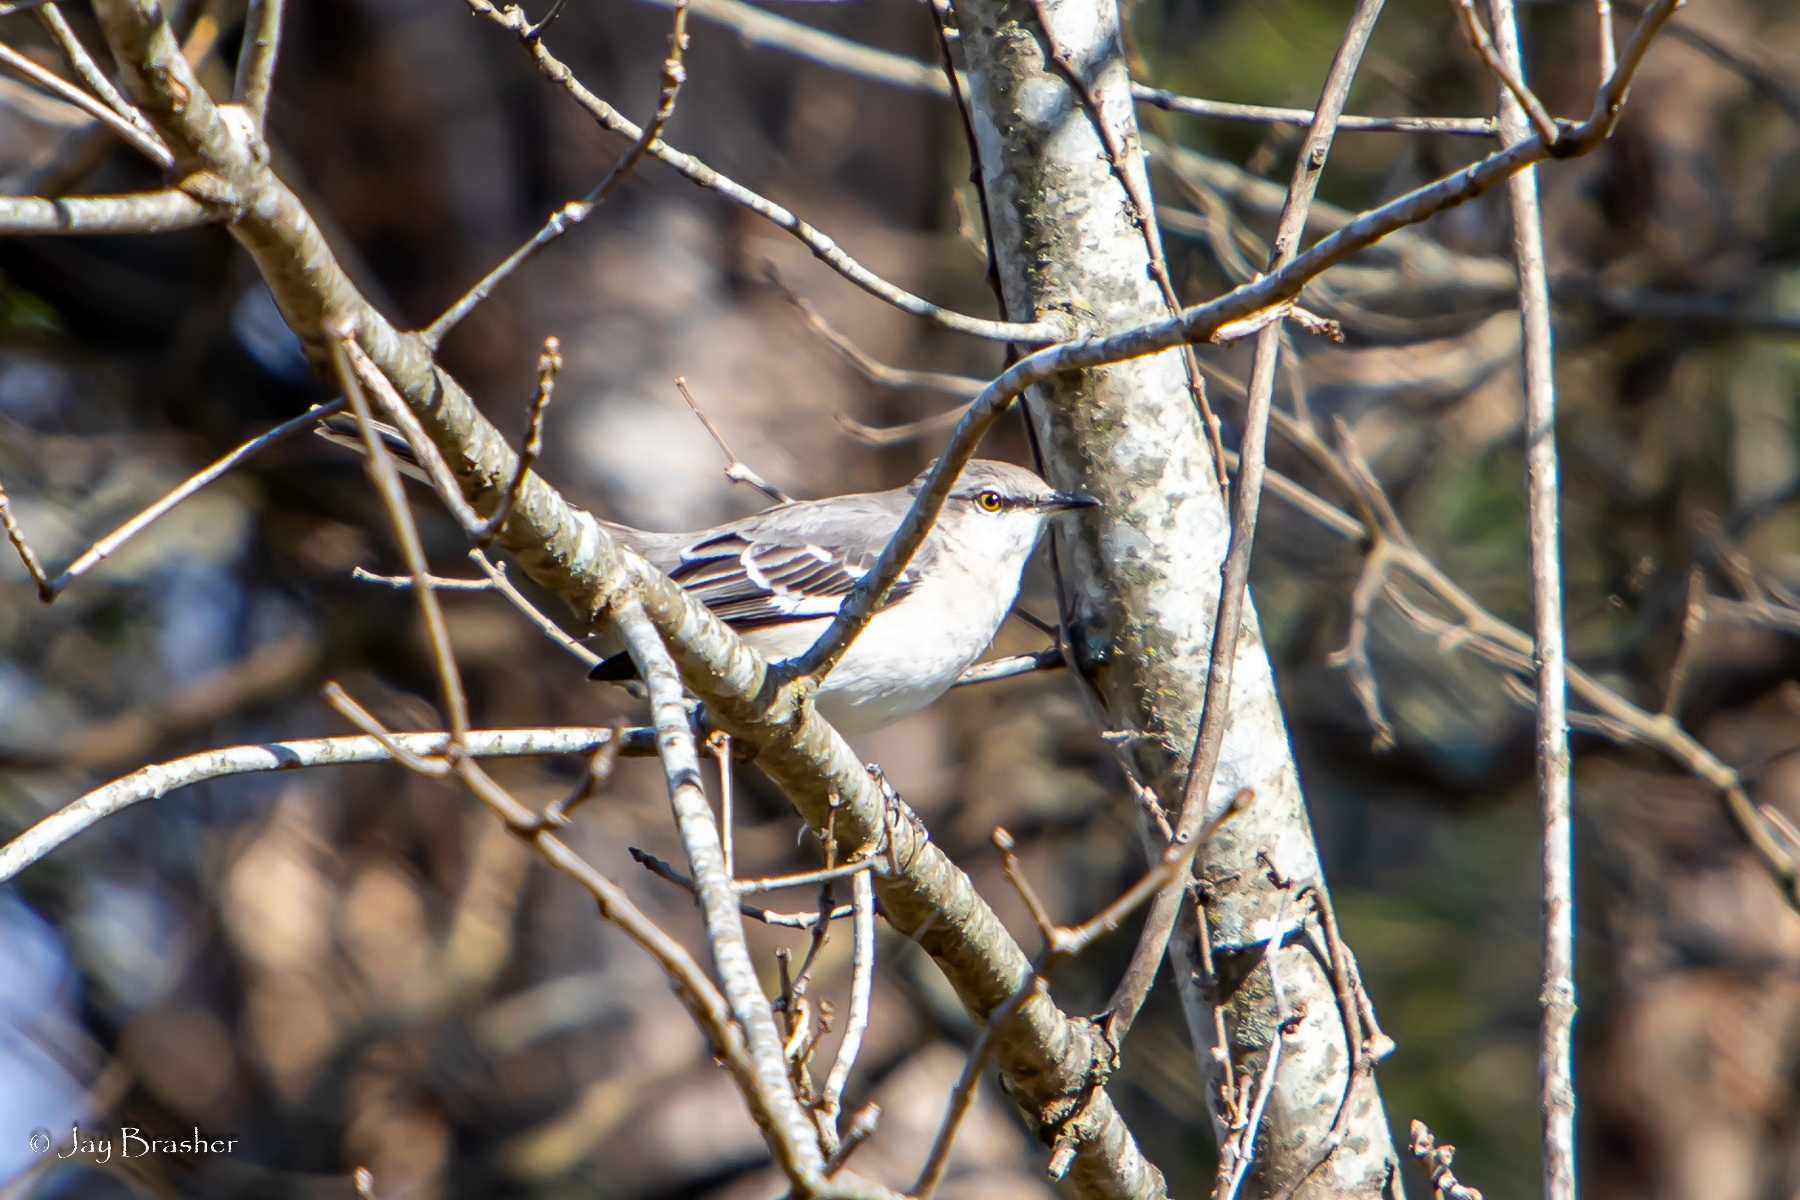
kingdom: Animalia
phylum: Chordata
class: Aves
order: Passeriformes
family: Mimidae
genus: Mimus
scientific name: Mimus polyglottos
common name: Northern mockingbird
